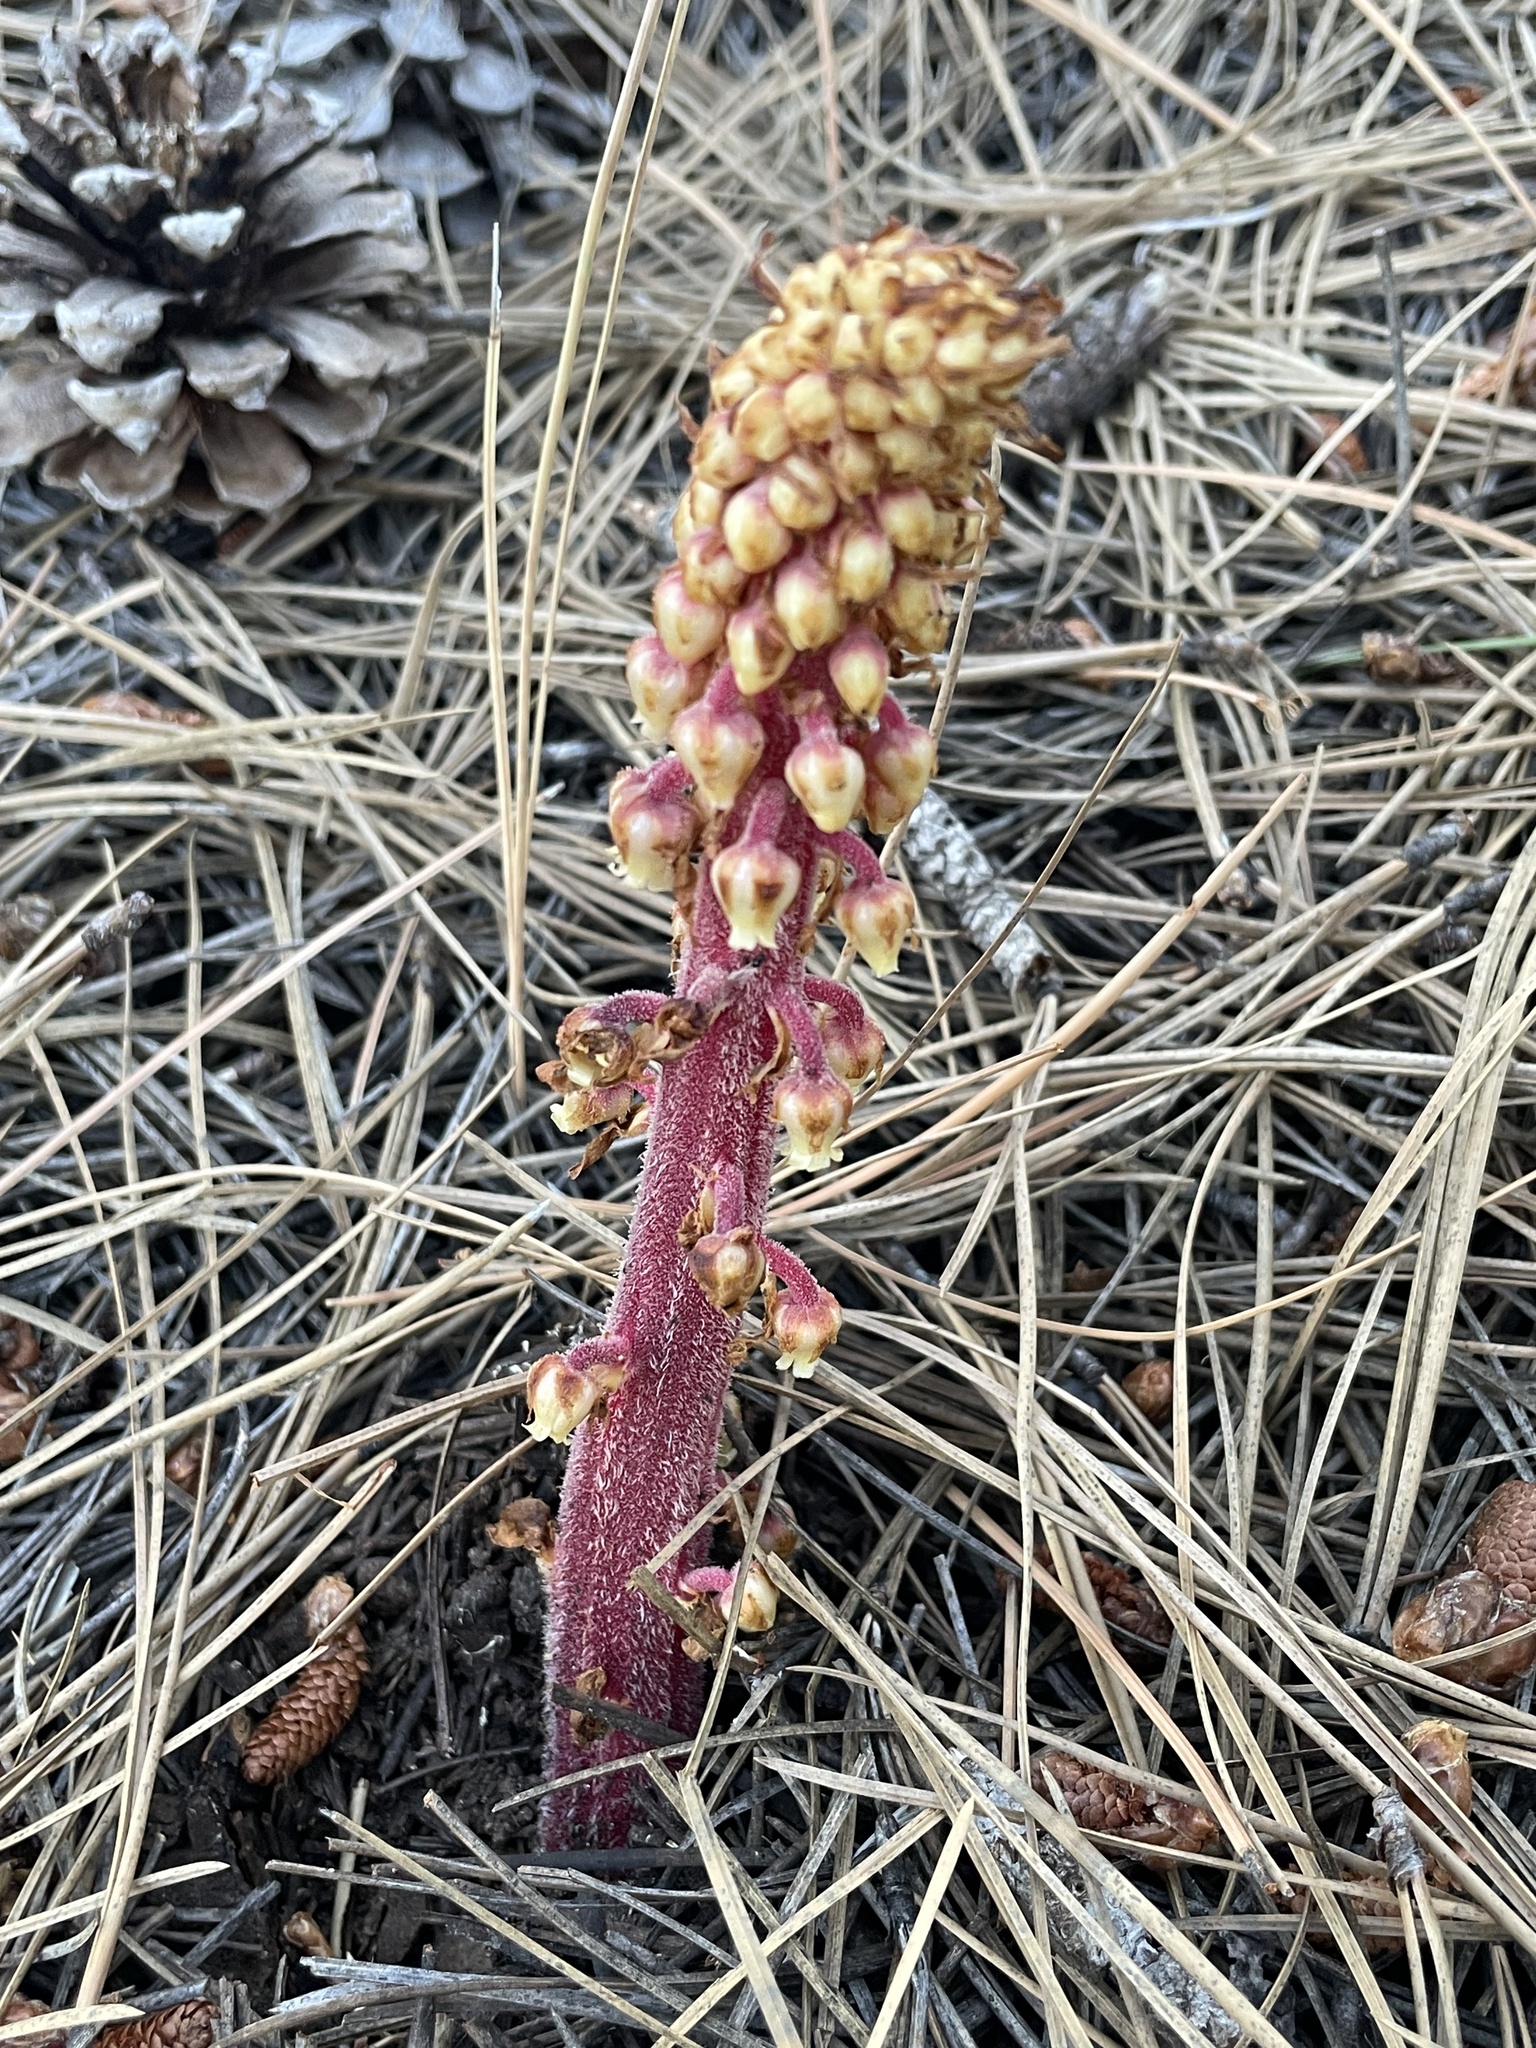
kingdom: Plantae
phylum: Tracheophyta
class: Magnoliopsida
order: Ericales
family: Ericaceae
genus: Pterospora
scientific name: Pterospora andromedea
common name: Giant bird's-nest
